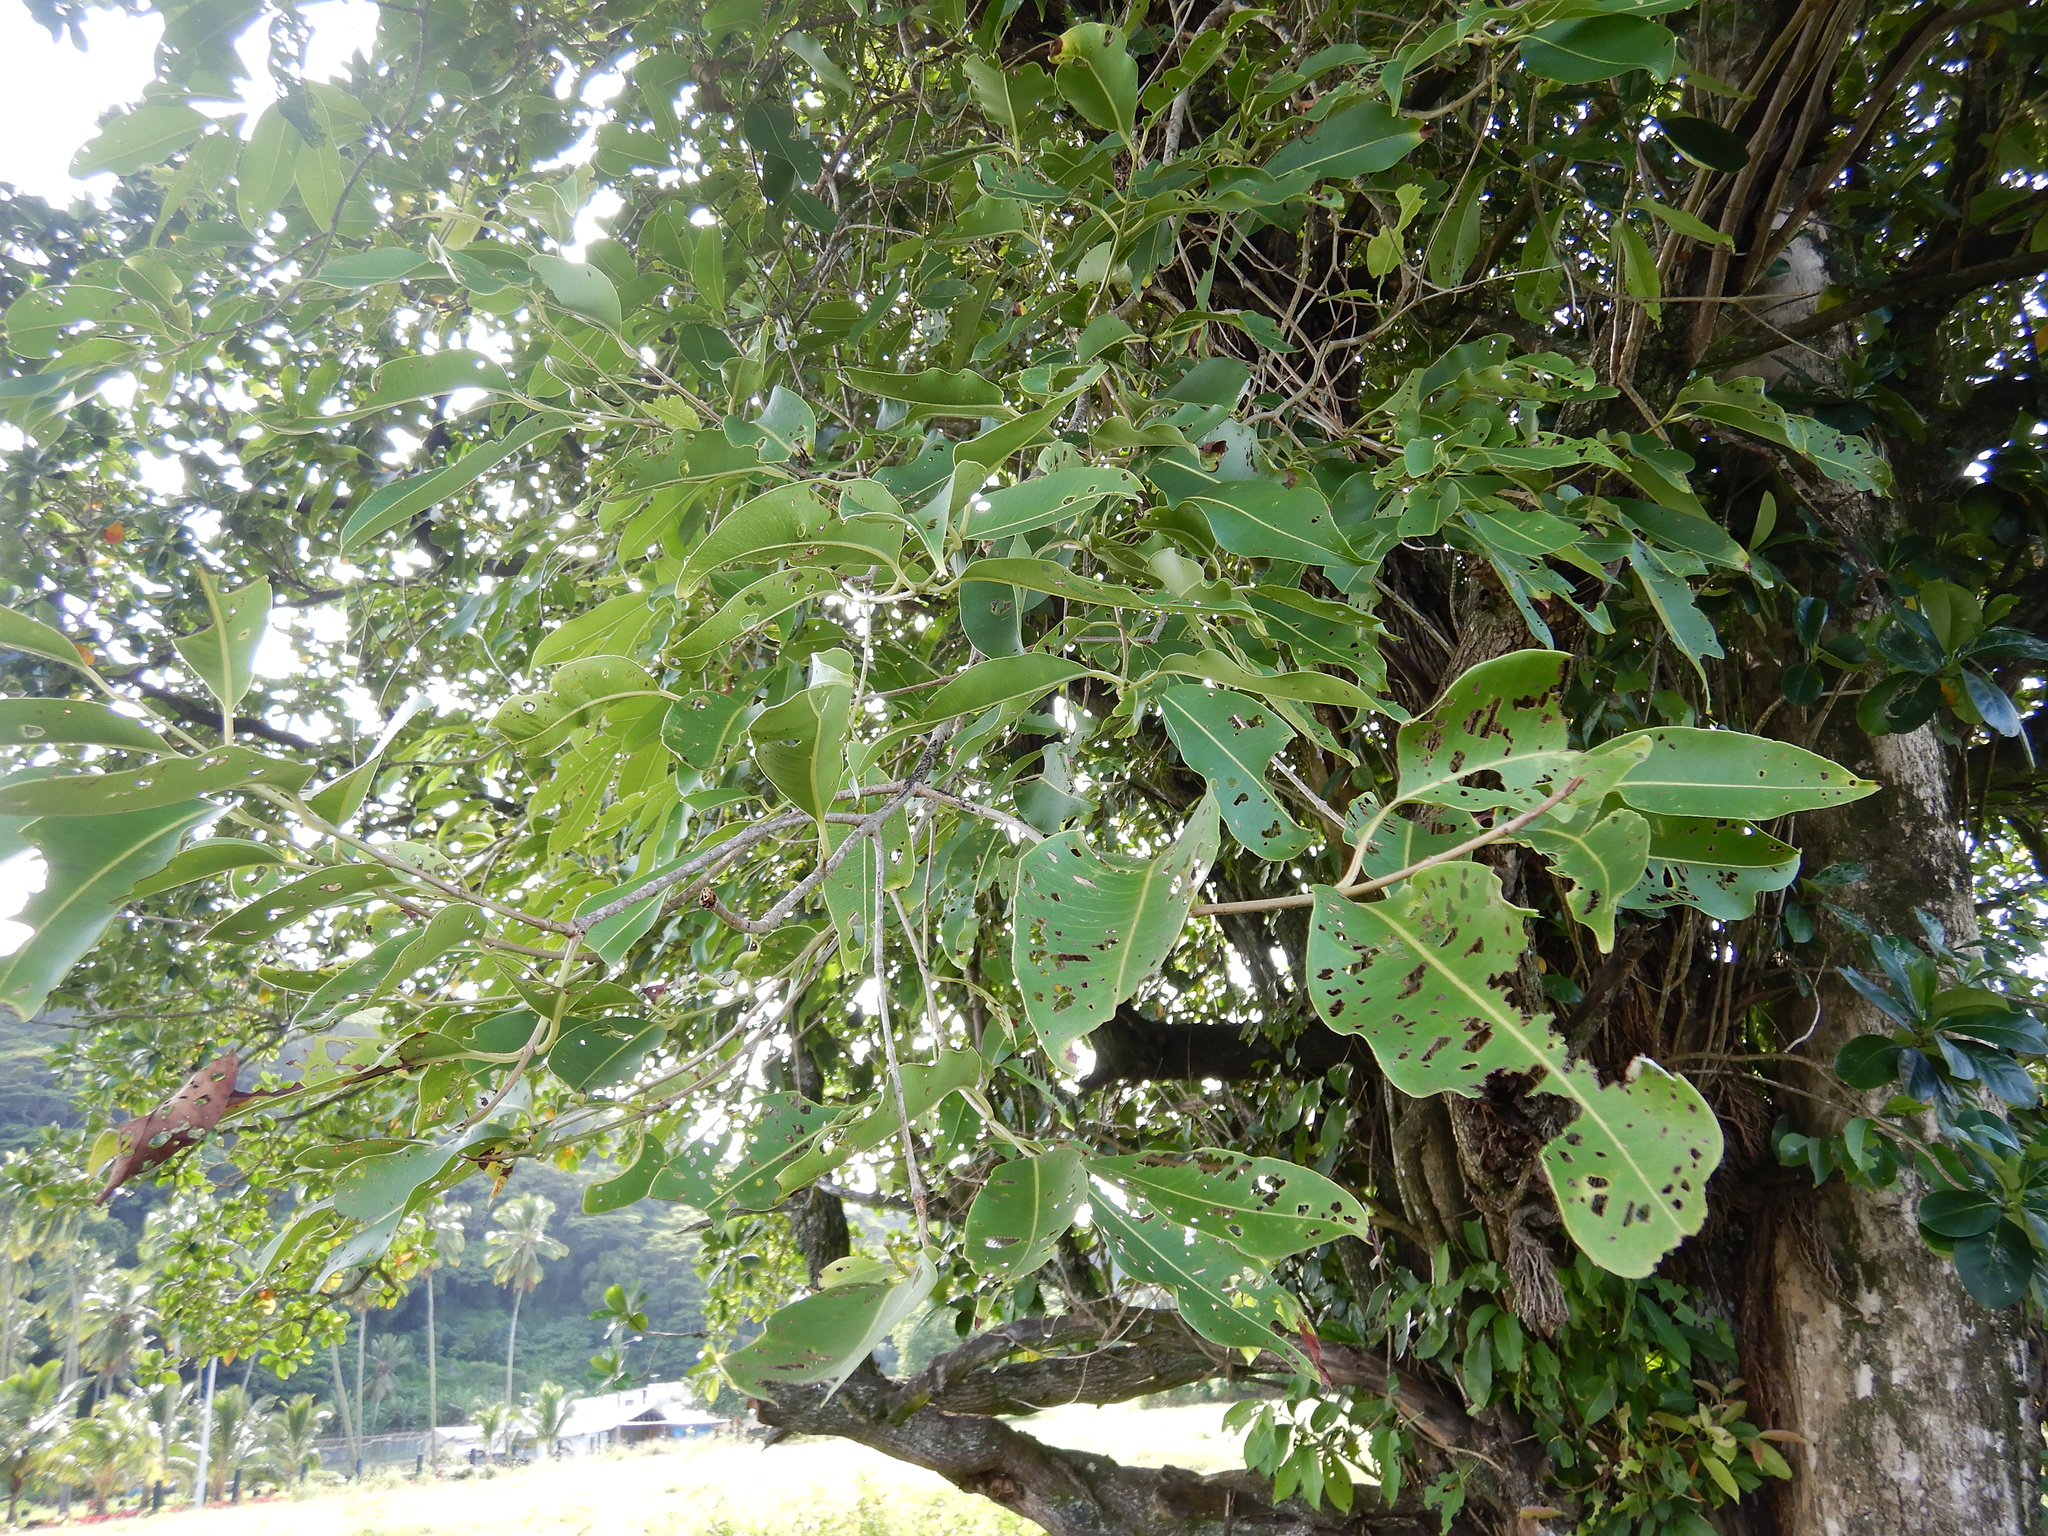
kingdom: Plantae
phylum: Tracheophyta
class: Magnoliopsida
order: Myrtales
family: Myrtaceae
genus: Syzygium
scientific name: Syzygium cumini
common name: Java plum
